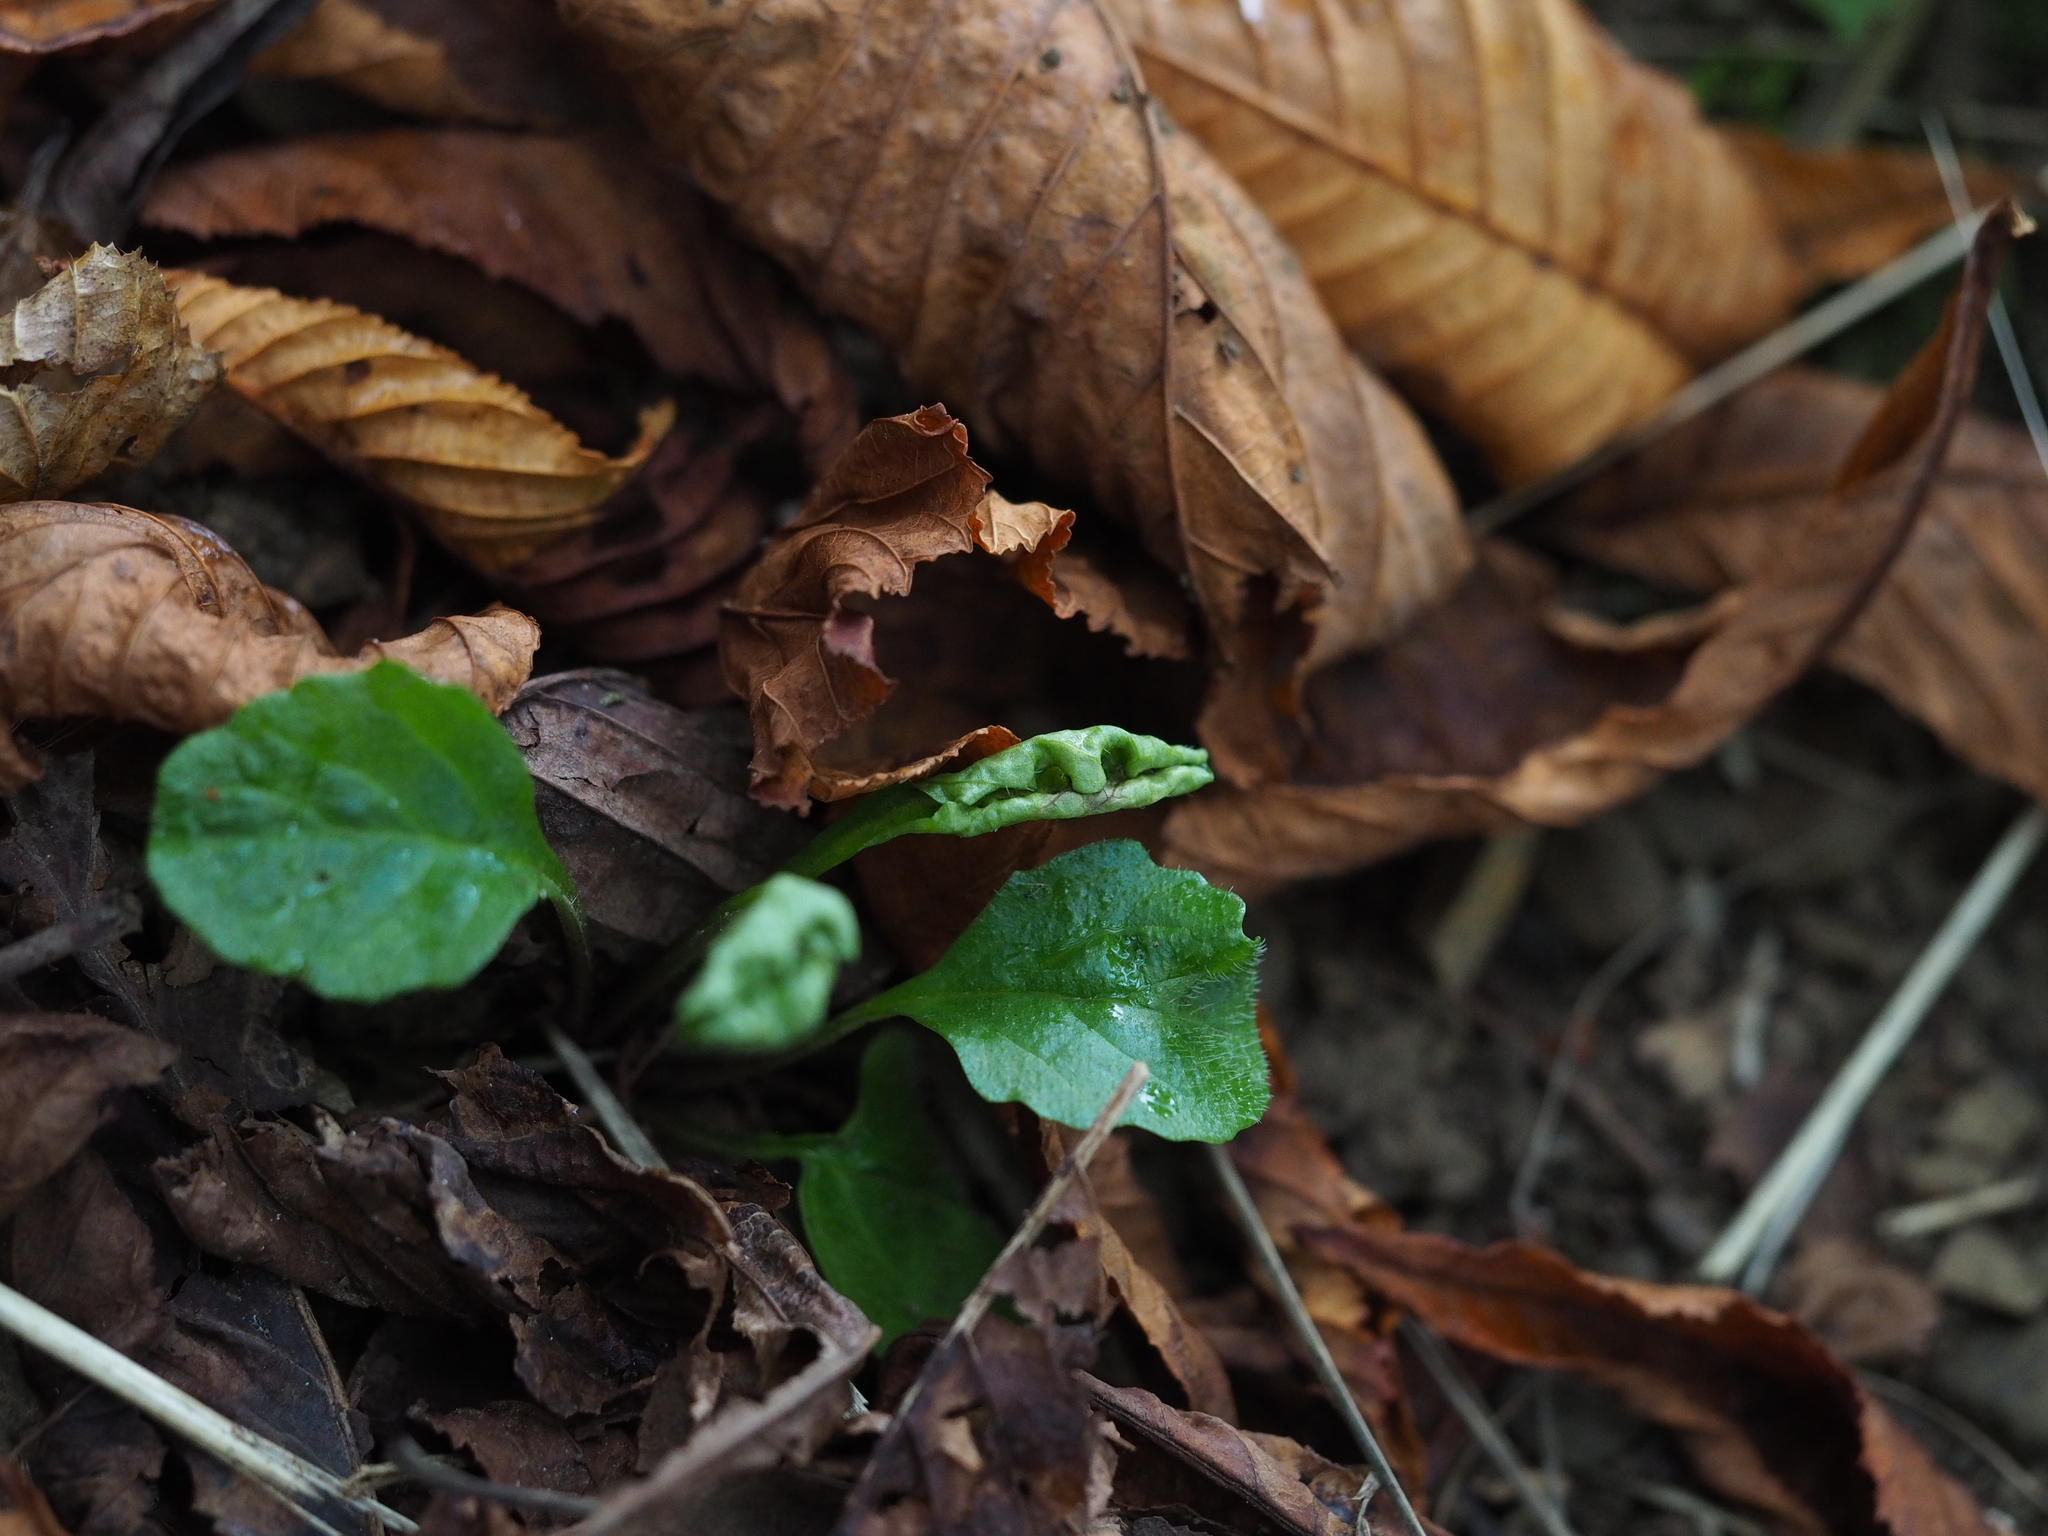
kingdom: Plantae
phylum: Tracheophyta
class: Magnoliopsida
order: Lamiales
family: Lamiaceae
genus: Ajuga
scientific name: Ajuga reptans
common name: Bugle
